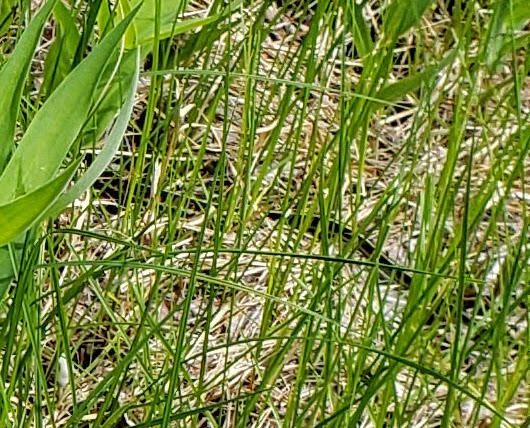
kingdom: Animalia
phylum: Chordata
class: Squamata
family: Colubridae
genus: Thamnophis
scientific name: Thamnophis sirtalis
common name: Common garter snake
